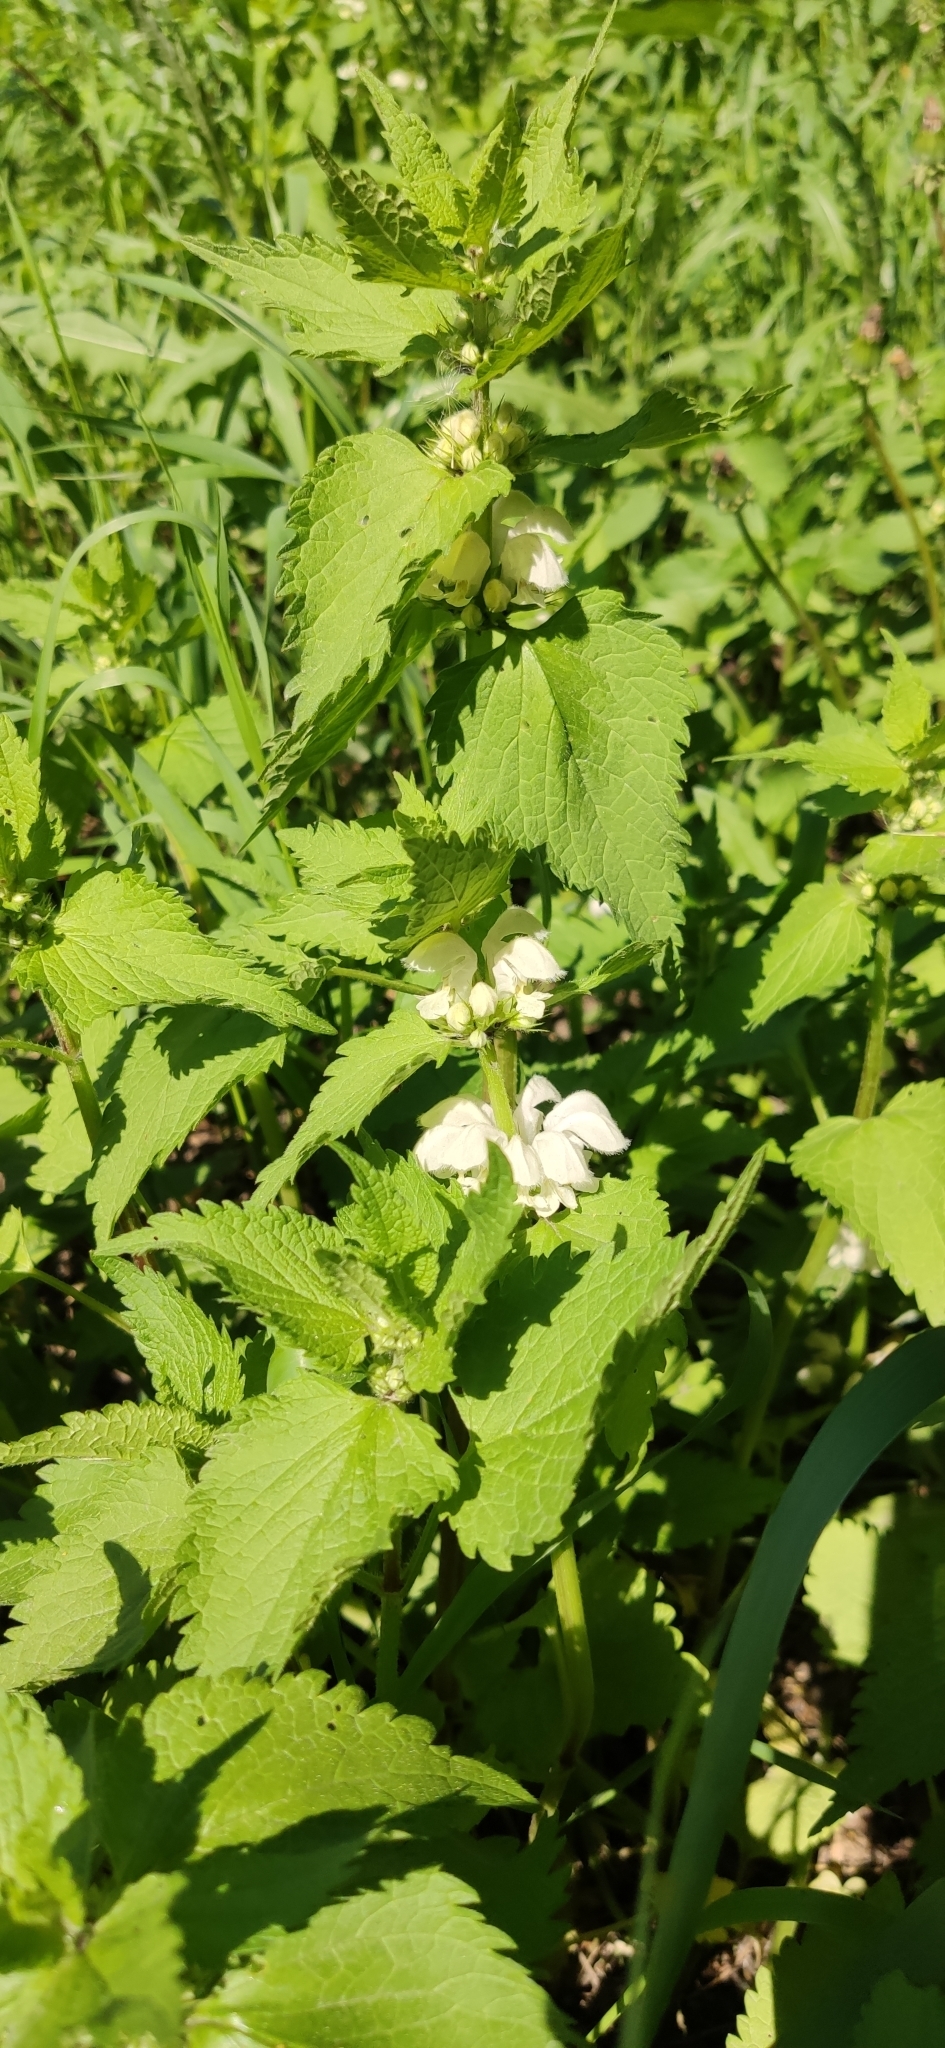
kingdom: Plantae
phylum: Tracheophyta
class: Magnoliopsida
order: Lamiales
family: Lamiaceae
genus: Lamium
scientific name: Lamium album
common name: White dead-nettle
